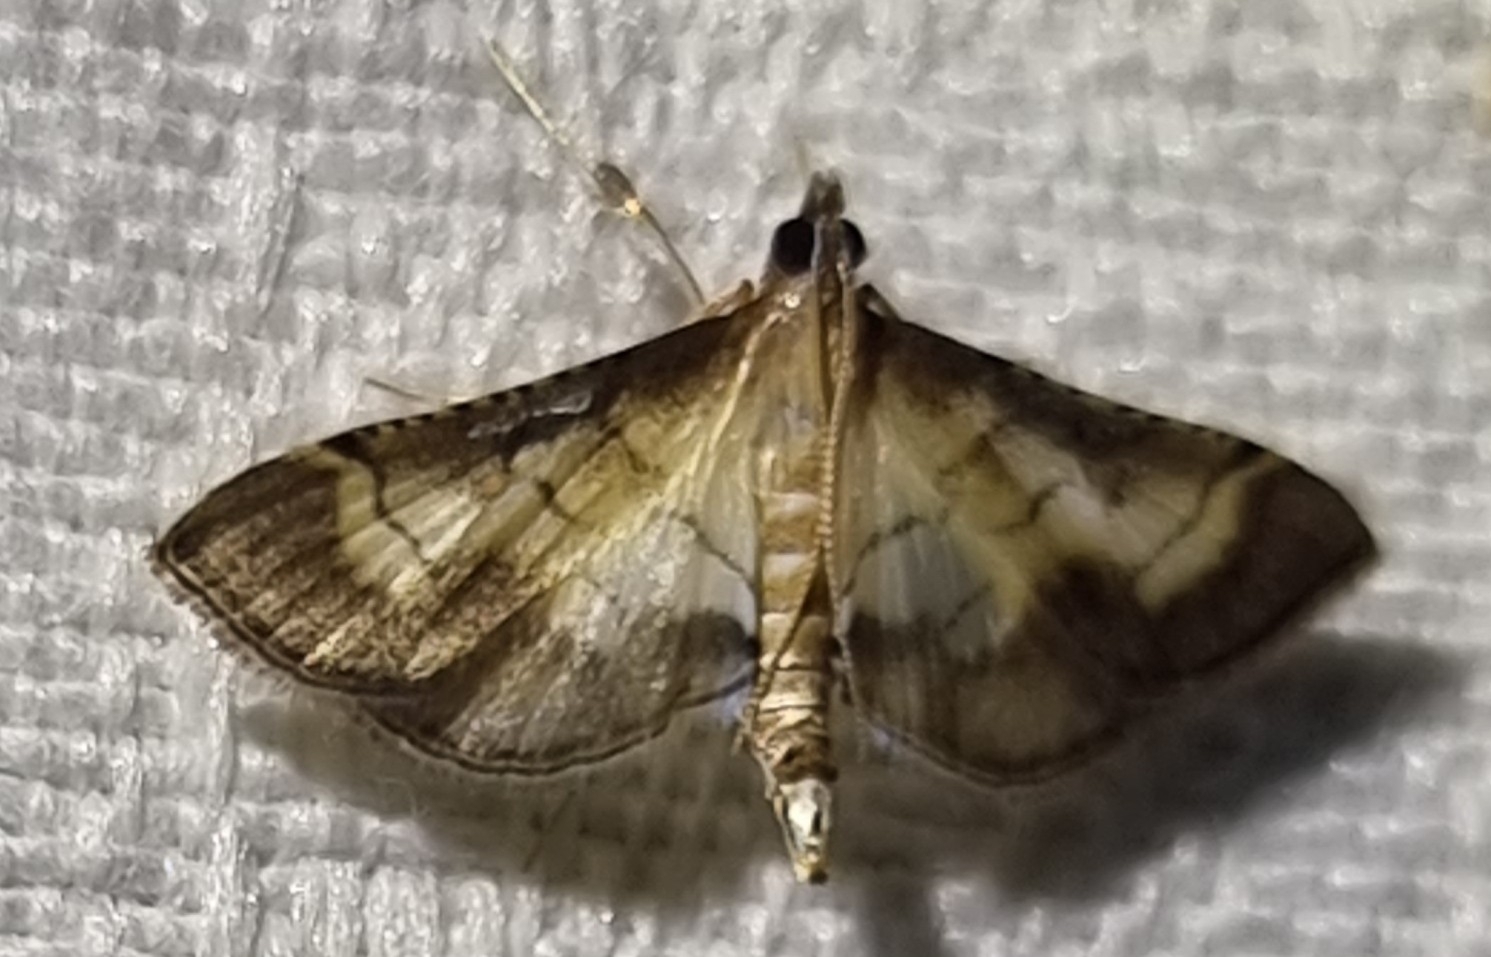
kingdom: Animalia
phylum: Arthropoda
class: Insecta
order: Lepidoptera
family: Crambidae
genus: Cnaphalocrocis
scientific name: Cnaphalocrocis poeyalis
